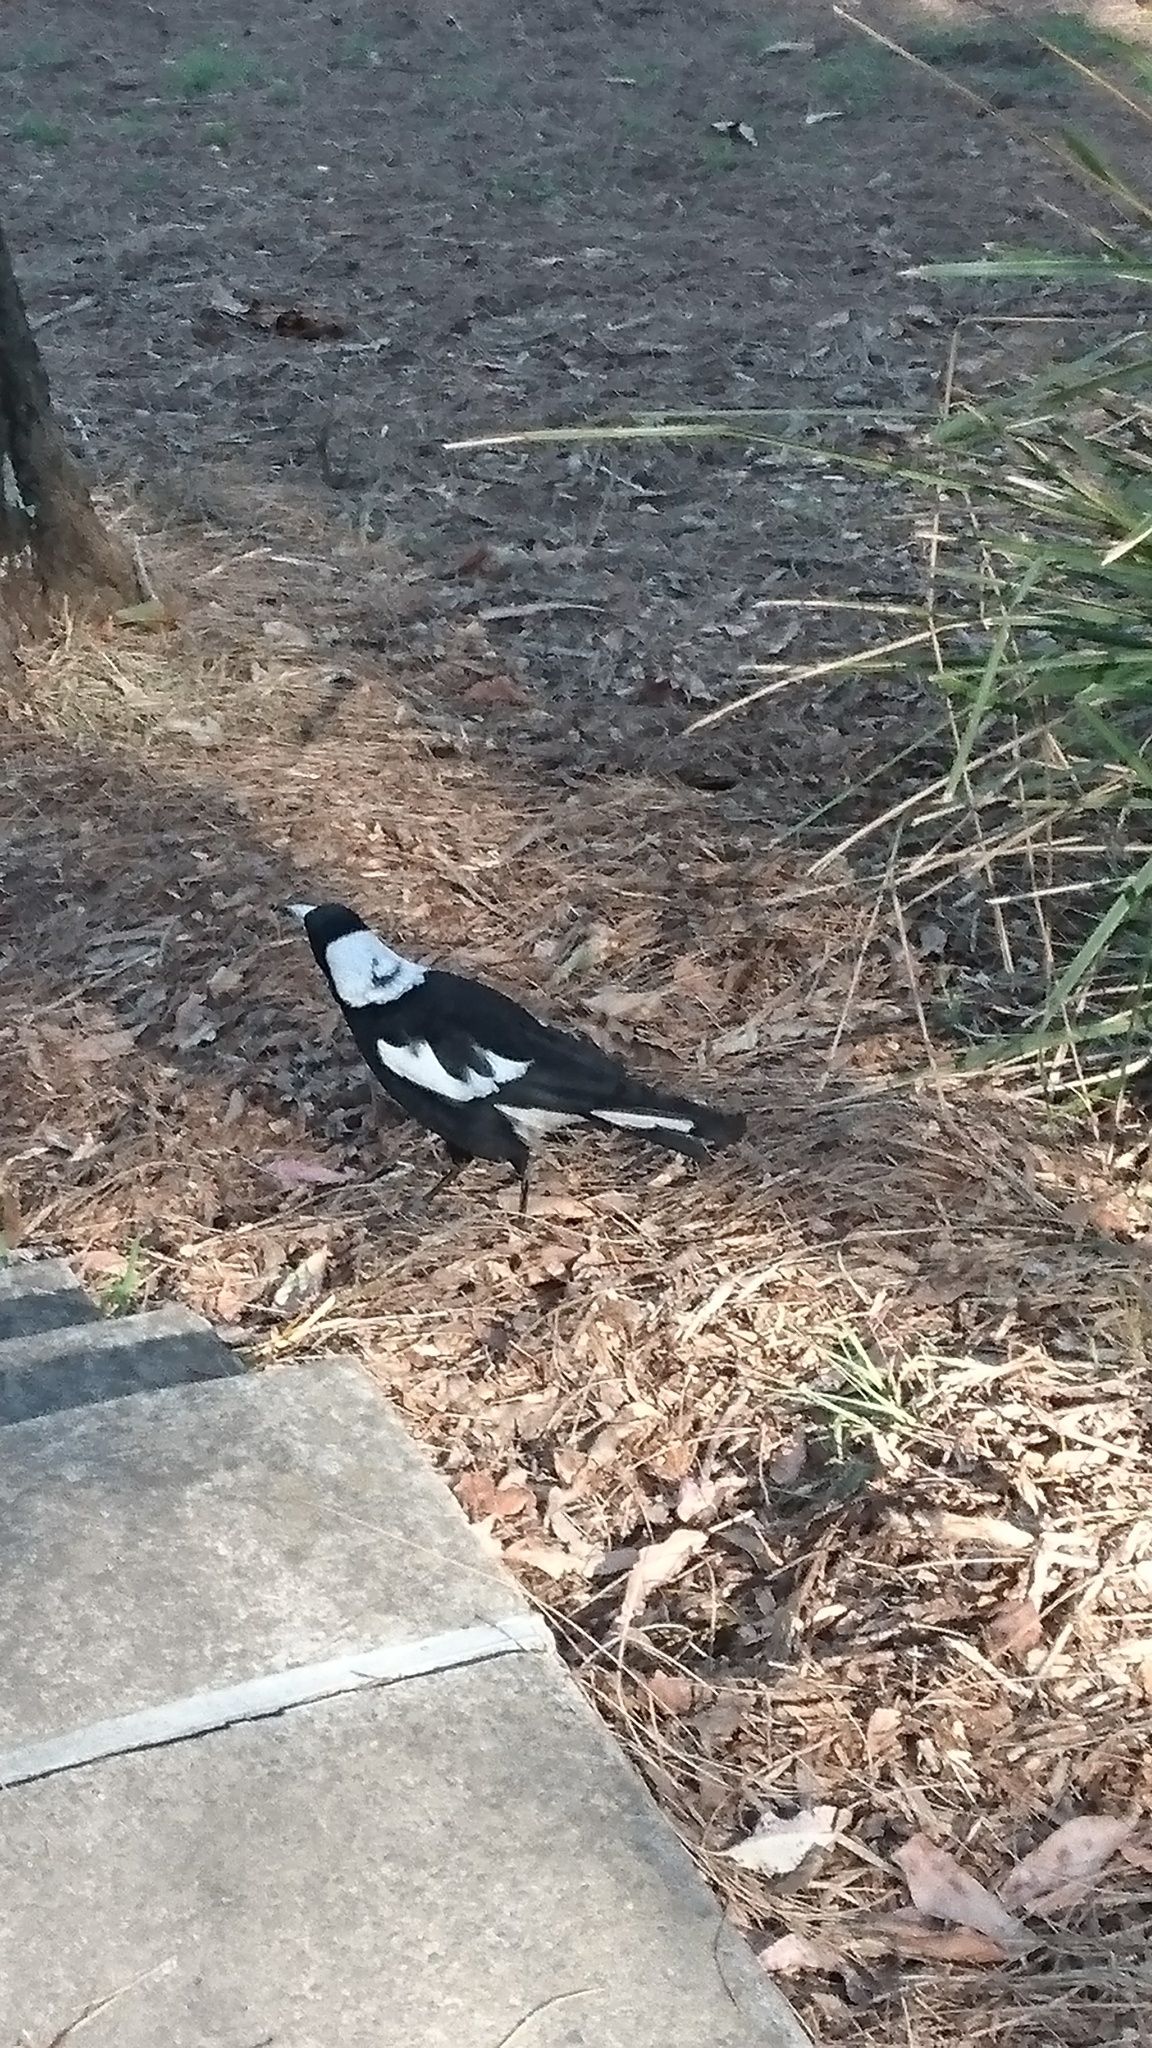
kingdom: Animalia
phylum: Chordata
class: Aves
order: Passeriformes
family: Cracticidae
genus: Gymnorhina
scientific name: Gymnorhina tibicen
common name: Australian magpie
